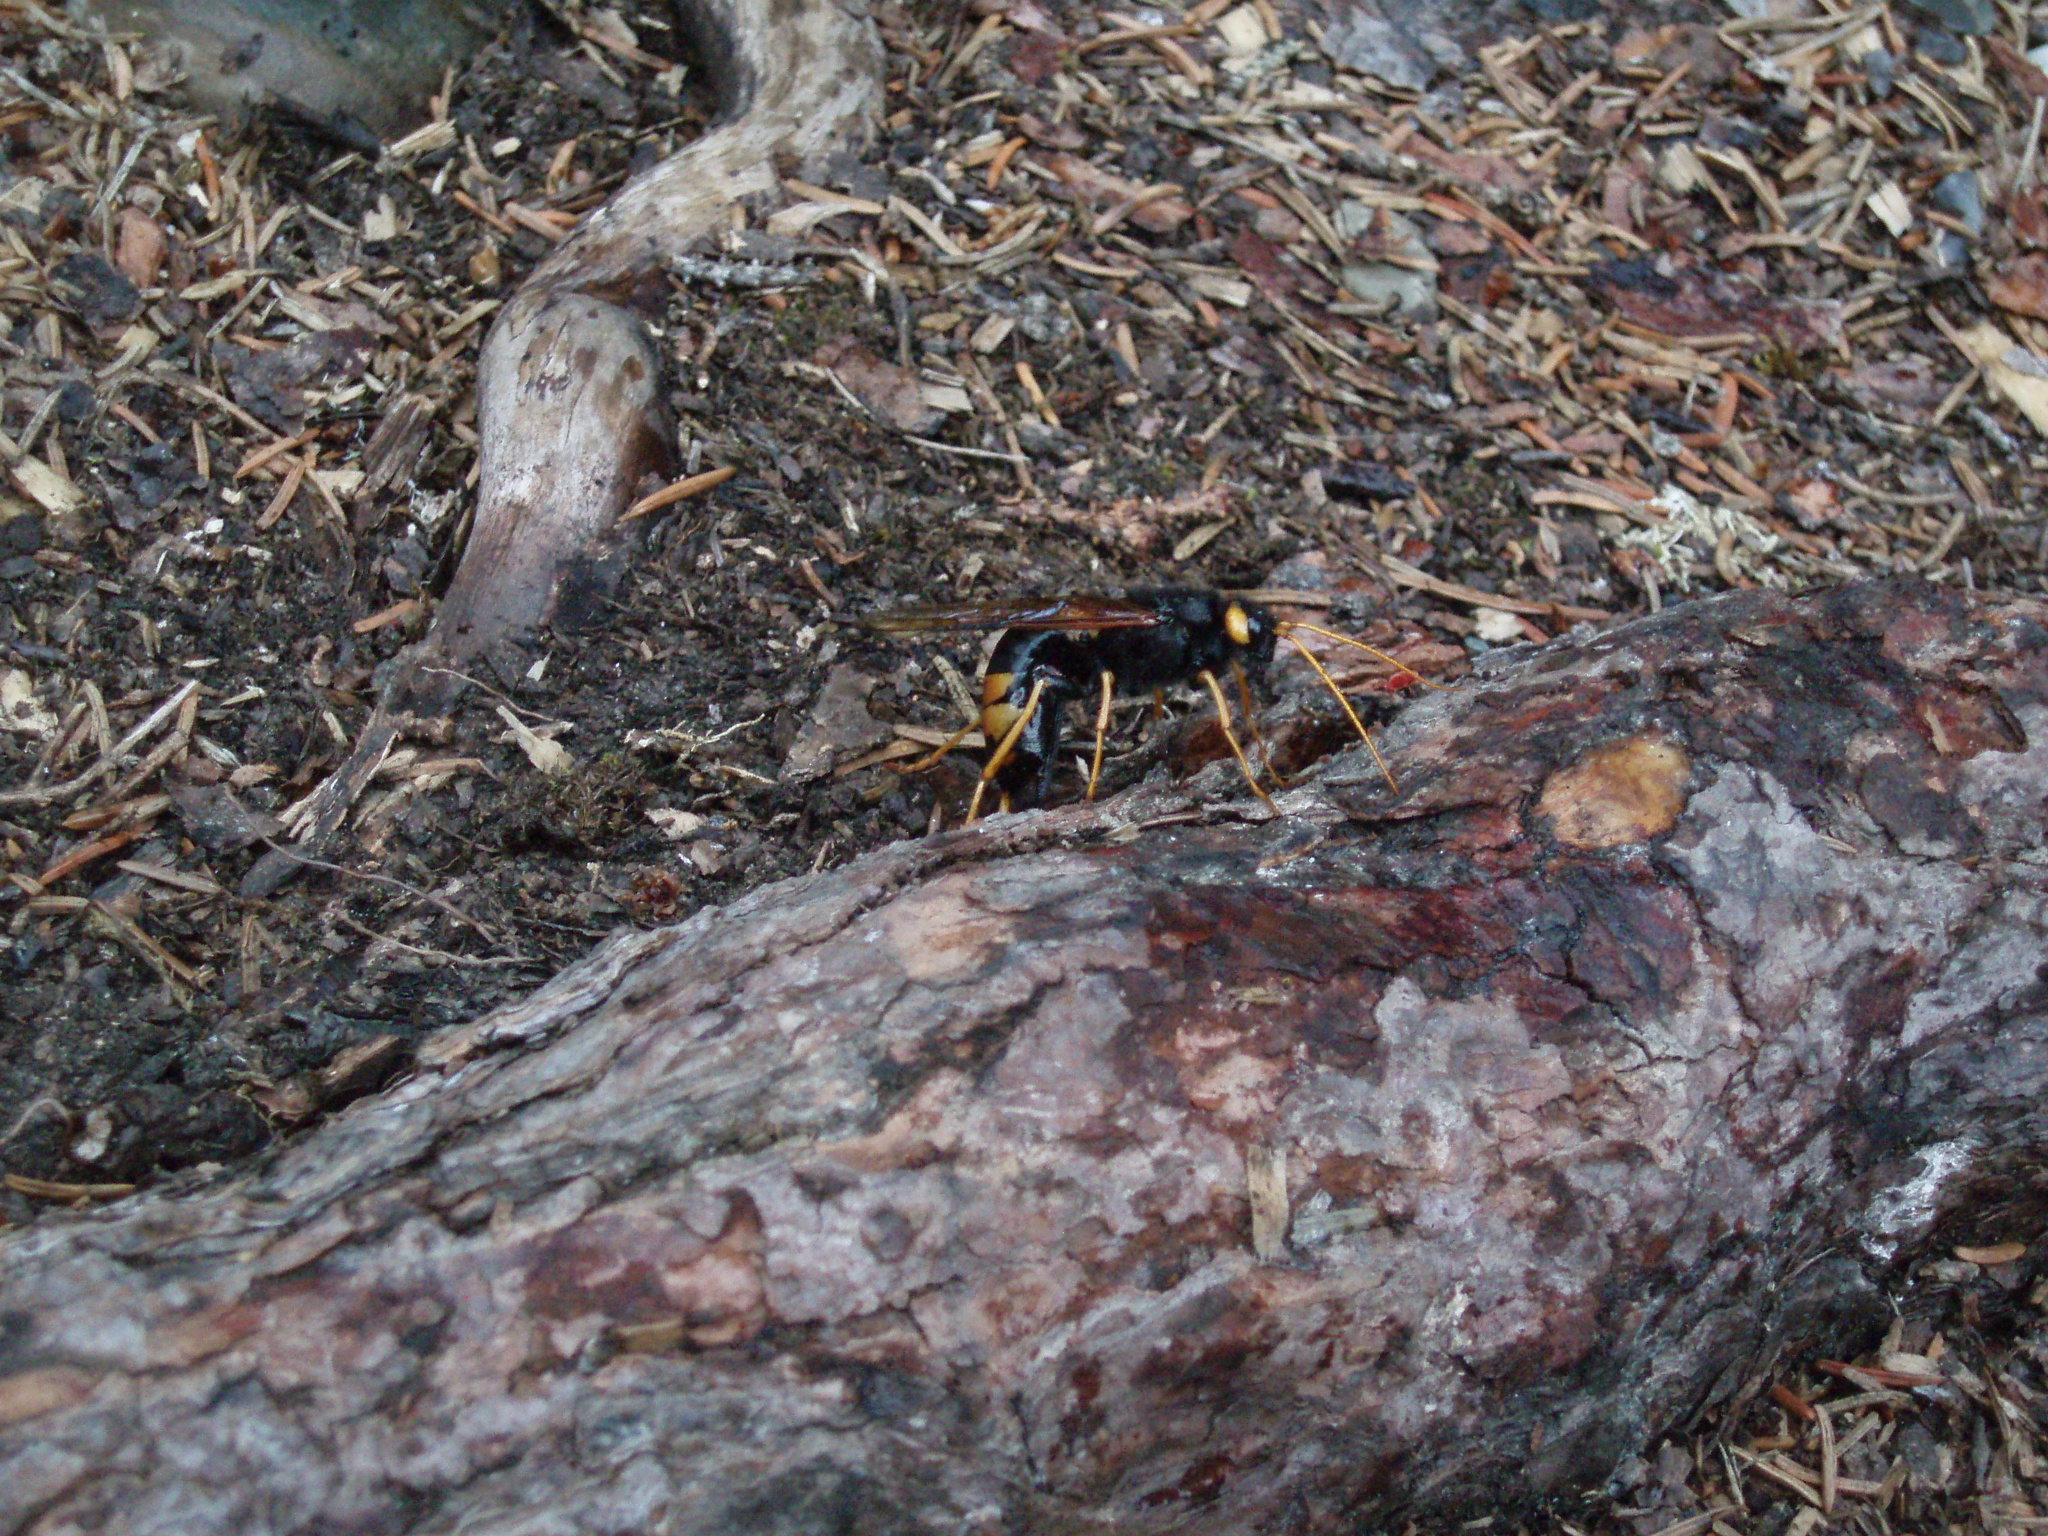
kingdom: Animalia
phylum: Arthropoda
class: Insecta
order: Hymenoptera
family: Siricidae
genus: Urocerus
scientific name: Urocerus flavicornis
